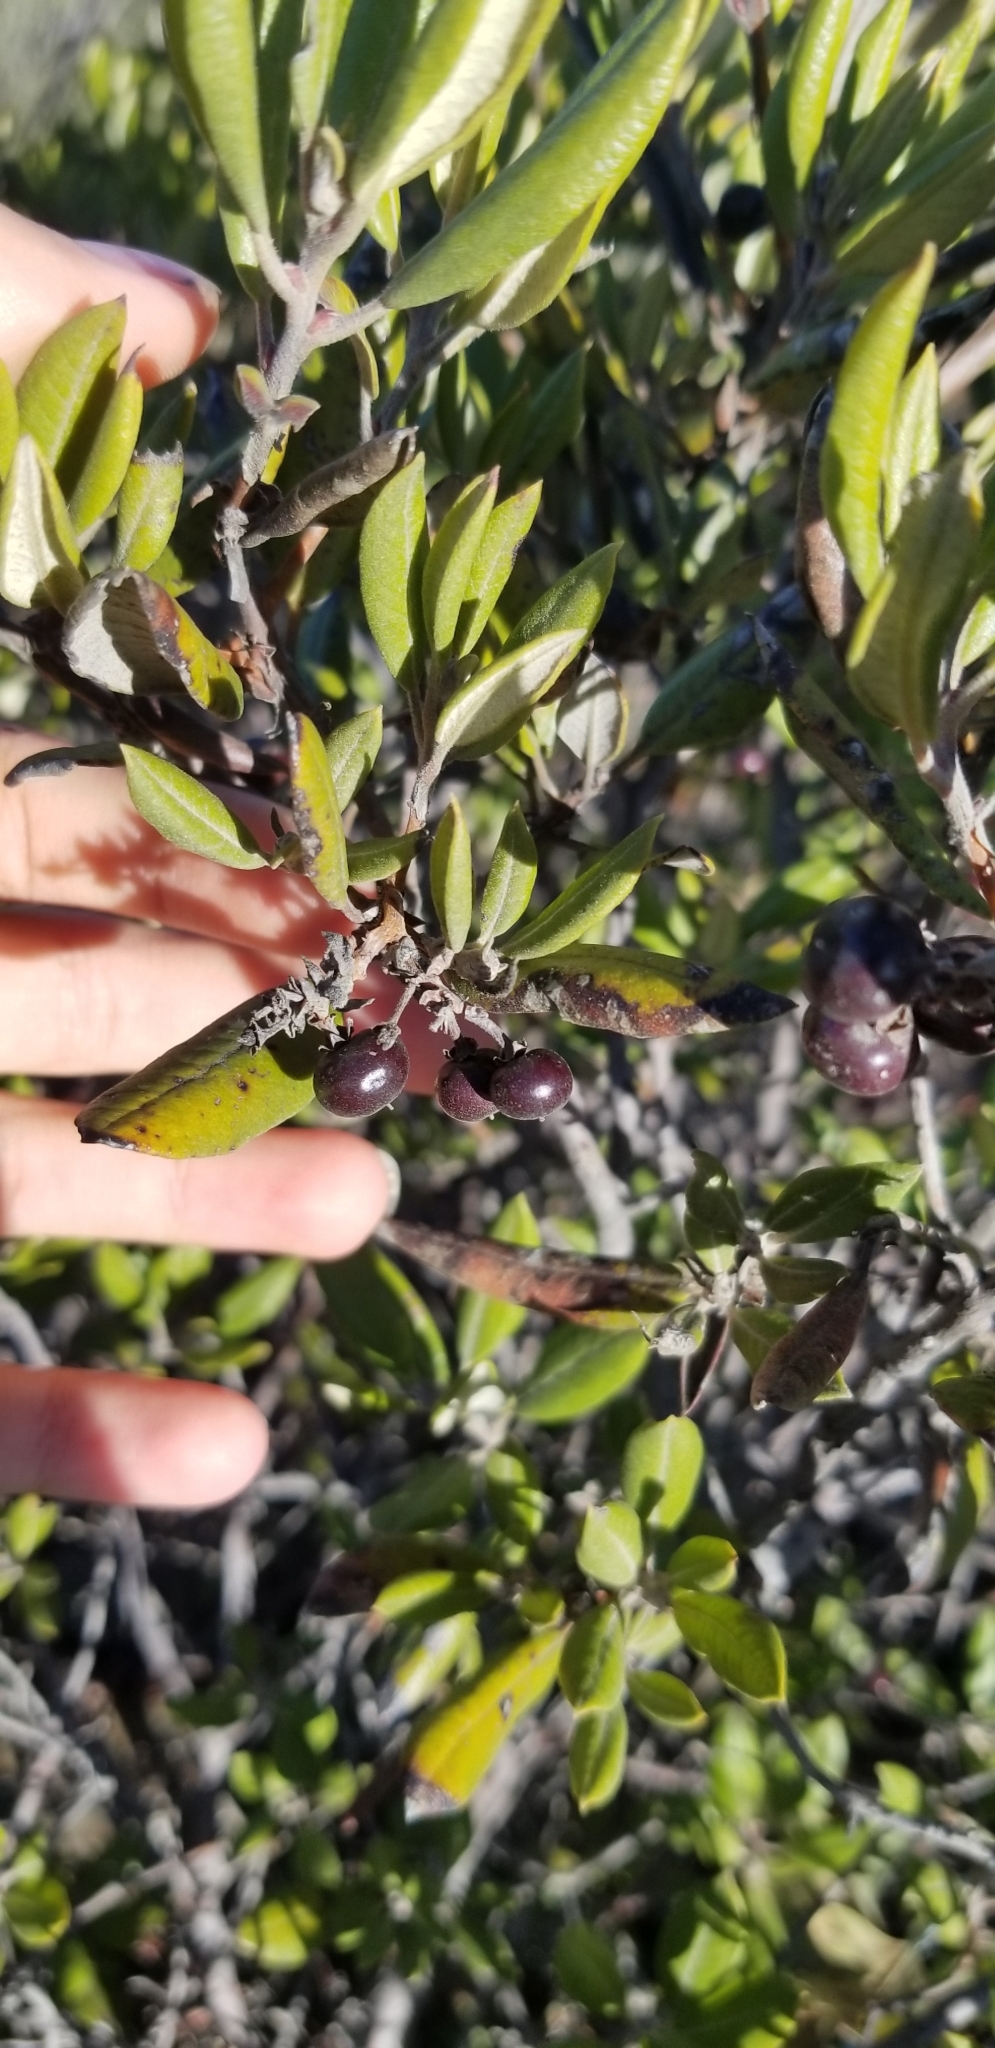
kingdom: Plantae
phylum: Tracheophyta
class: Magnoliopsida
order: Ericales
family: Ericaceae
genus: Arctostaphylos
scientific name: Arctostaphylos bicolor
